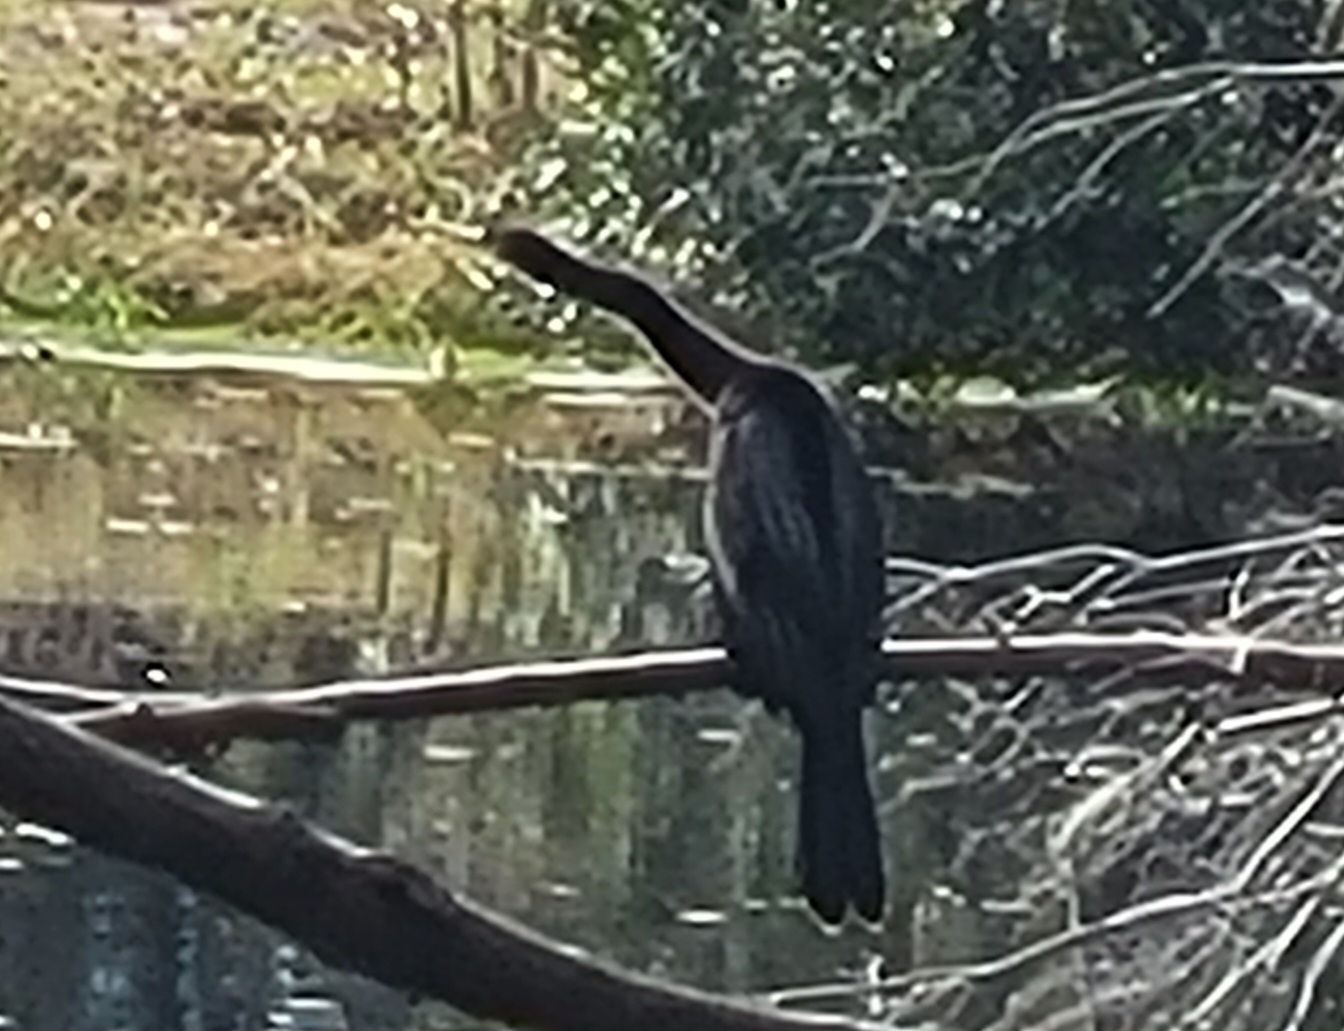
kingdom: Animalia
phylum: Chordata
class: Aves
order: Suliformes
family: Anhingidae
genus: Anhinga
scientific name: Anhinga anhinga
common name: Anhinga
